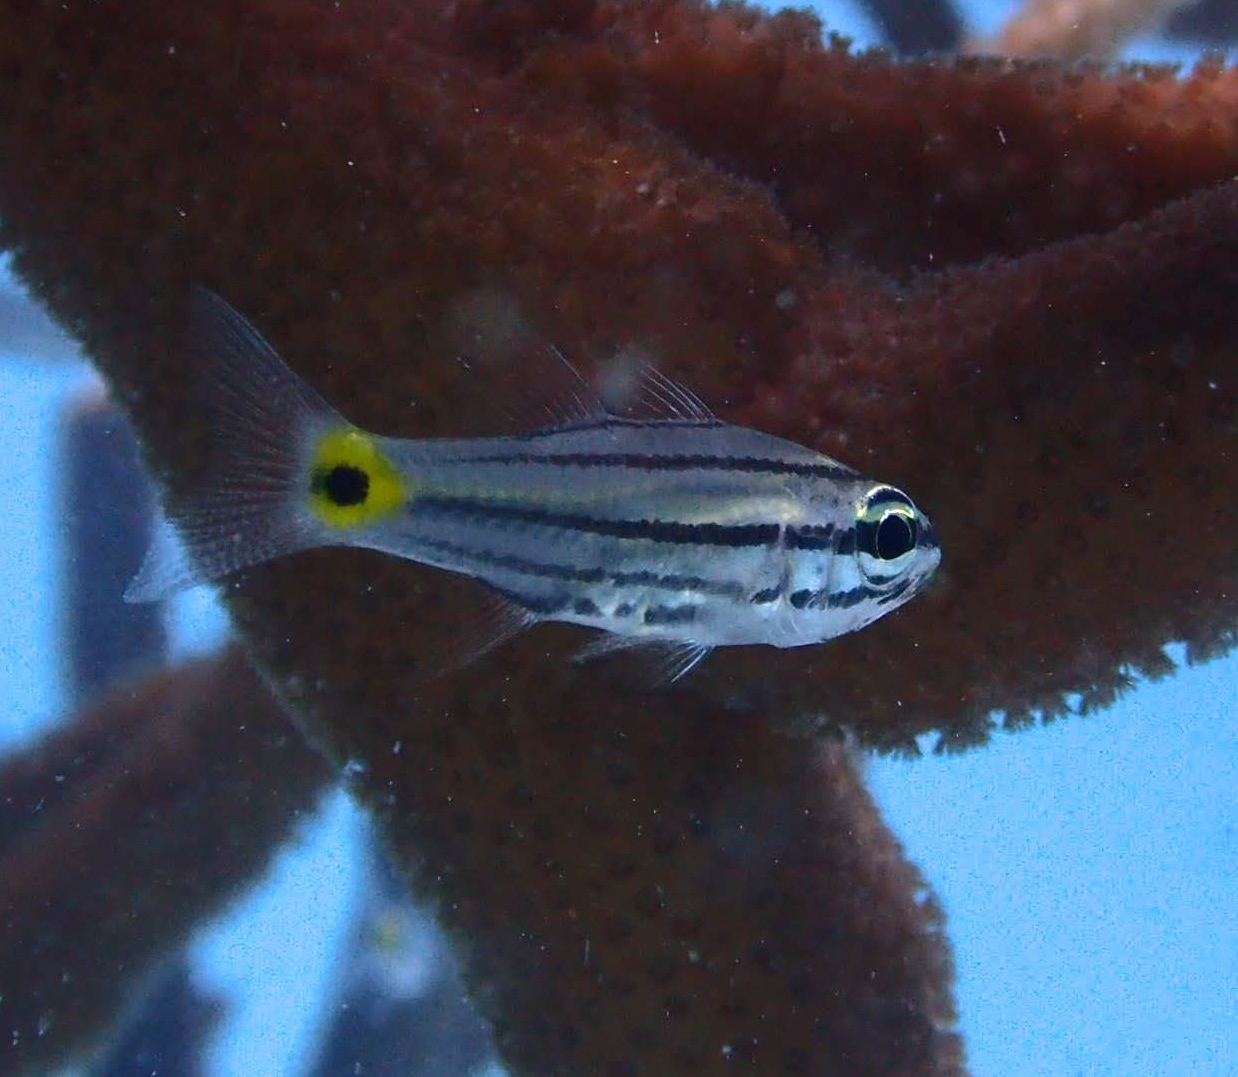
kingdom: Animalia
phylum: Chordata
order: Perciformes
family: Apogonidae
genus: Cheilodipterus
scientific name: Cheilodipterus quinquelineatus
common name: Five-lined cardinalfish
